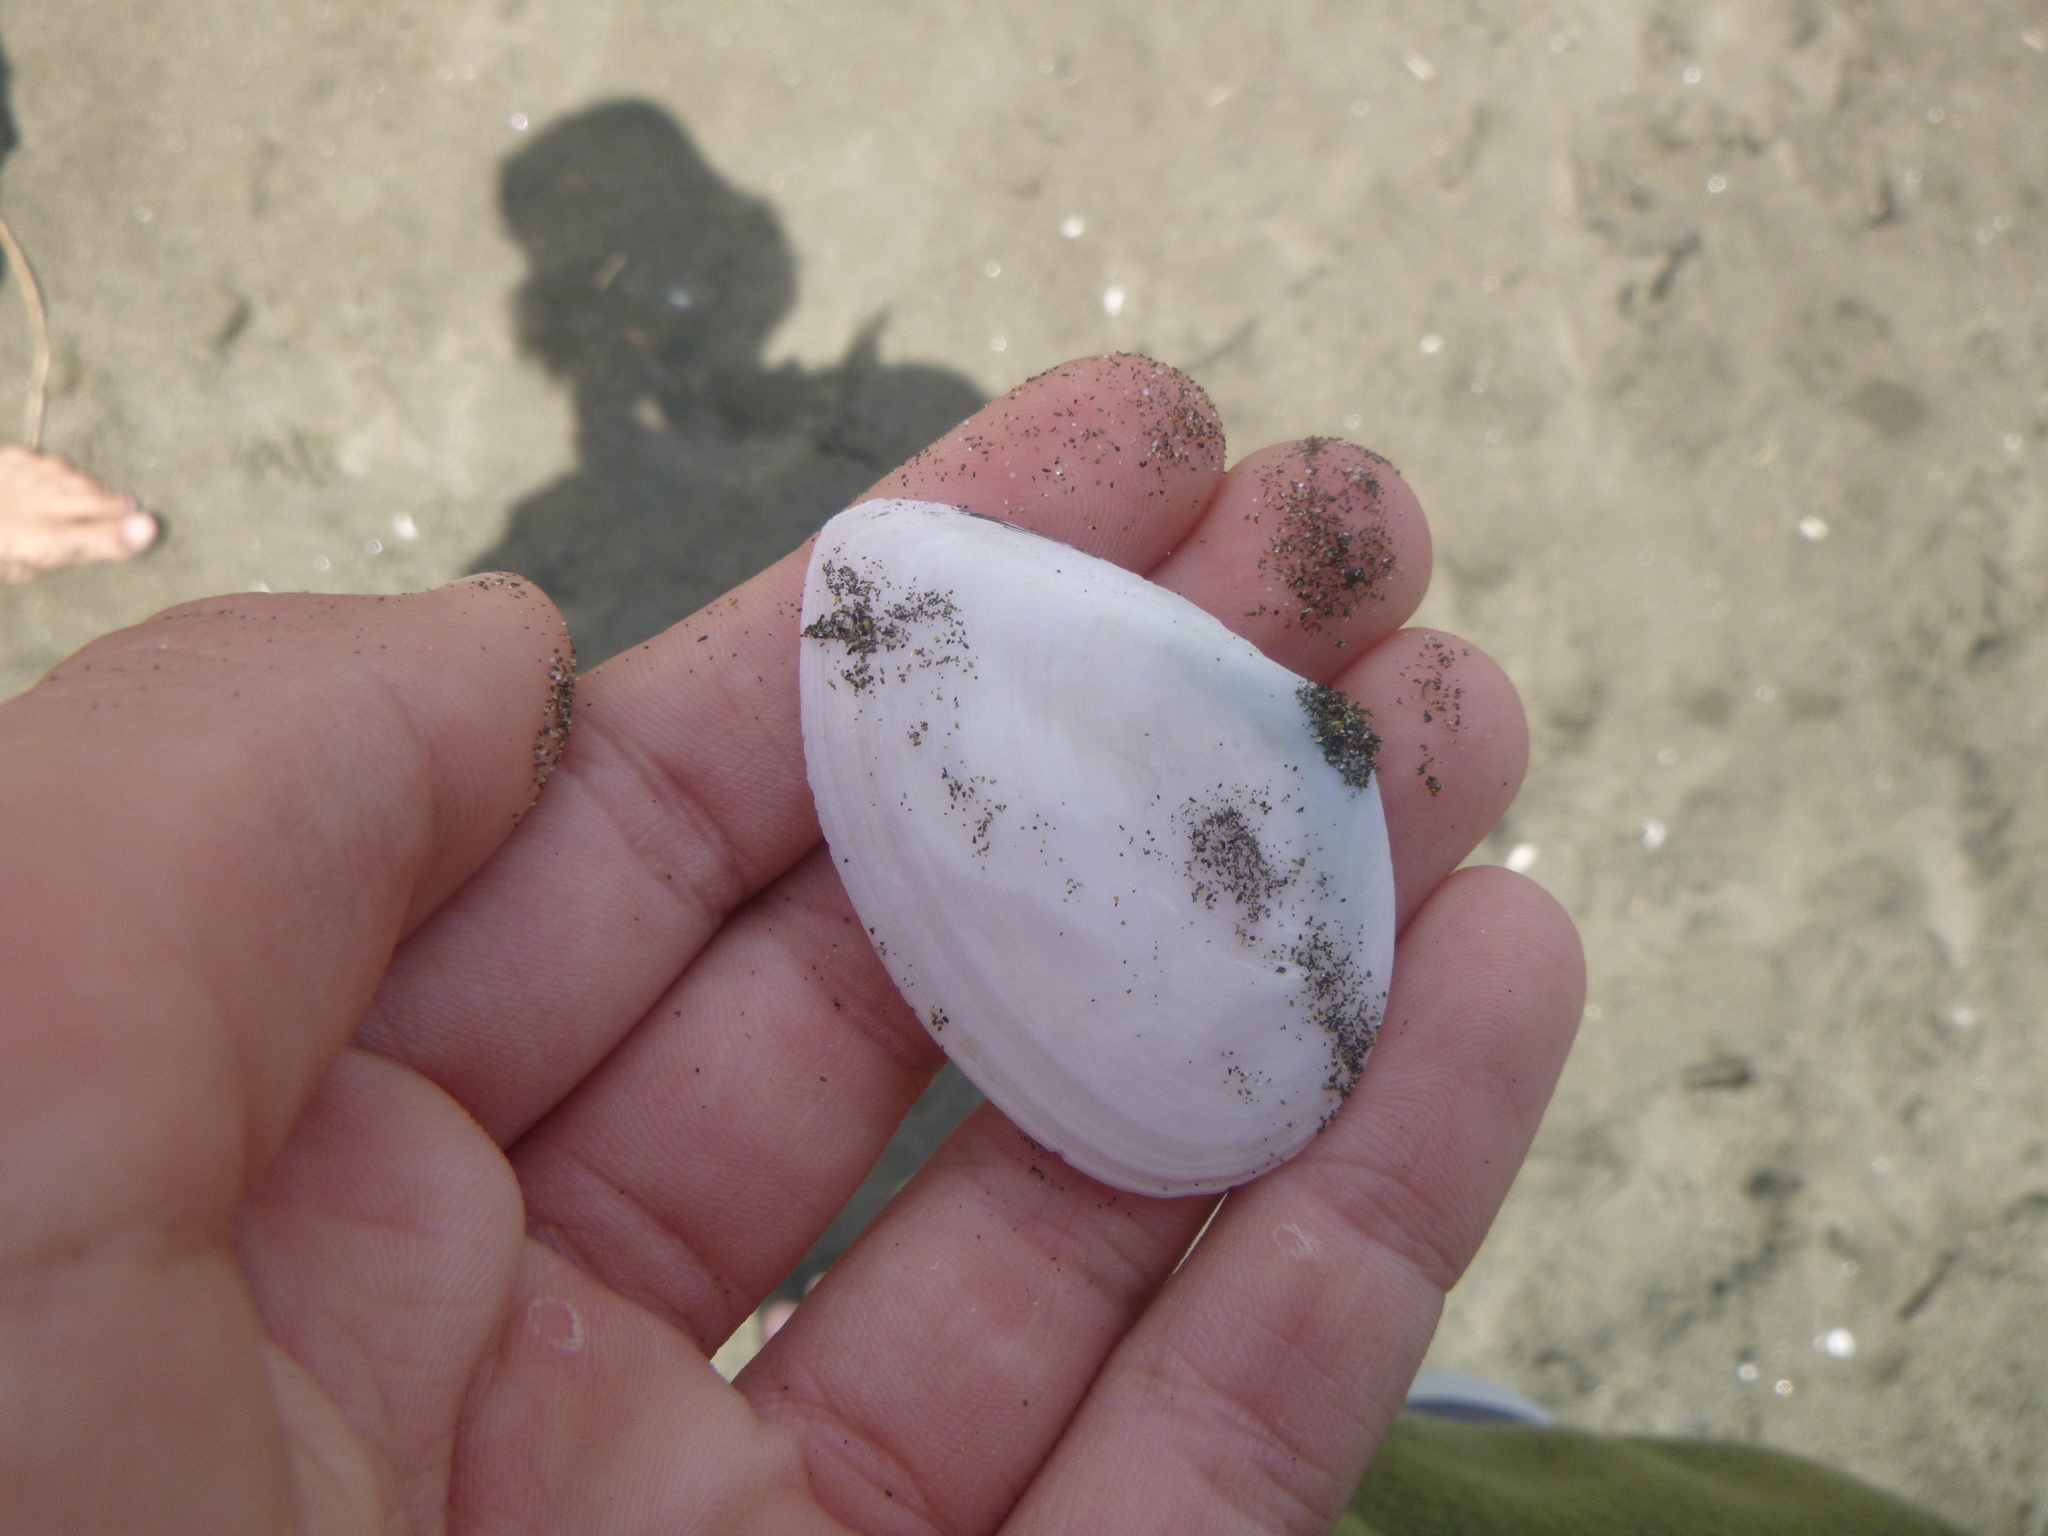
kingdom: Animalia
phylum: Mollusca
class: Bivalvia
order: Cardiida
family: Tellinidae
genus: Bartschicoma
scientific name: Bartschicoma gaimardi
